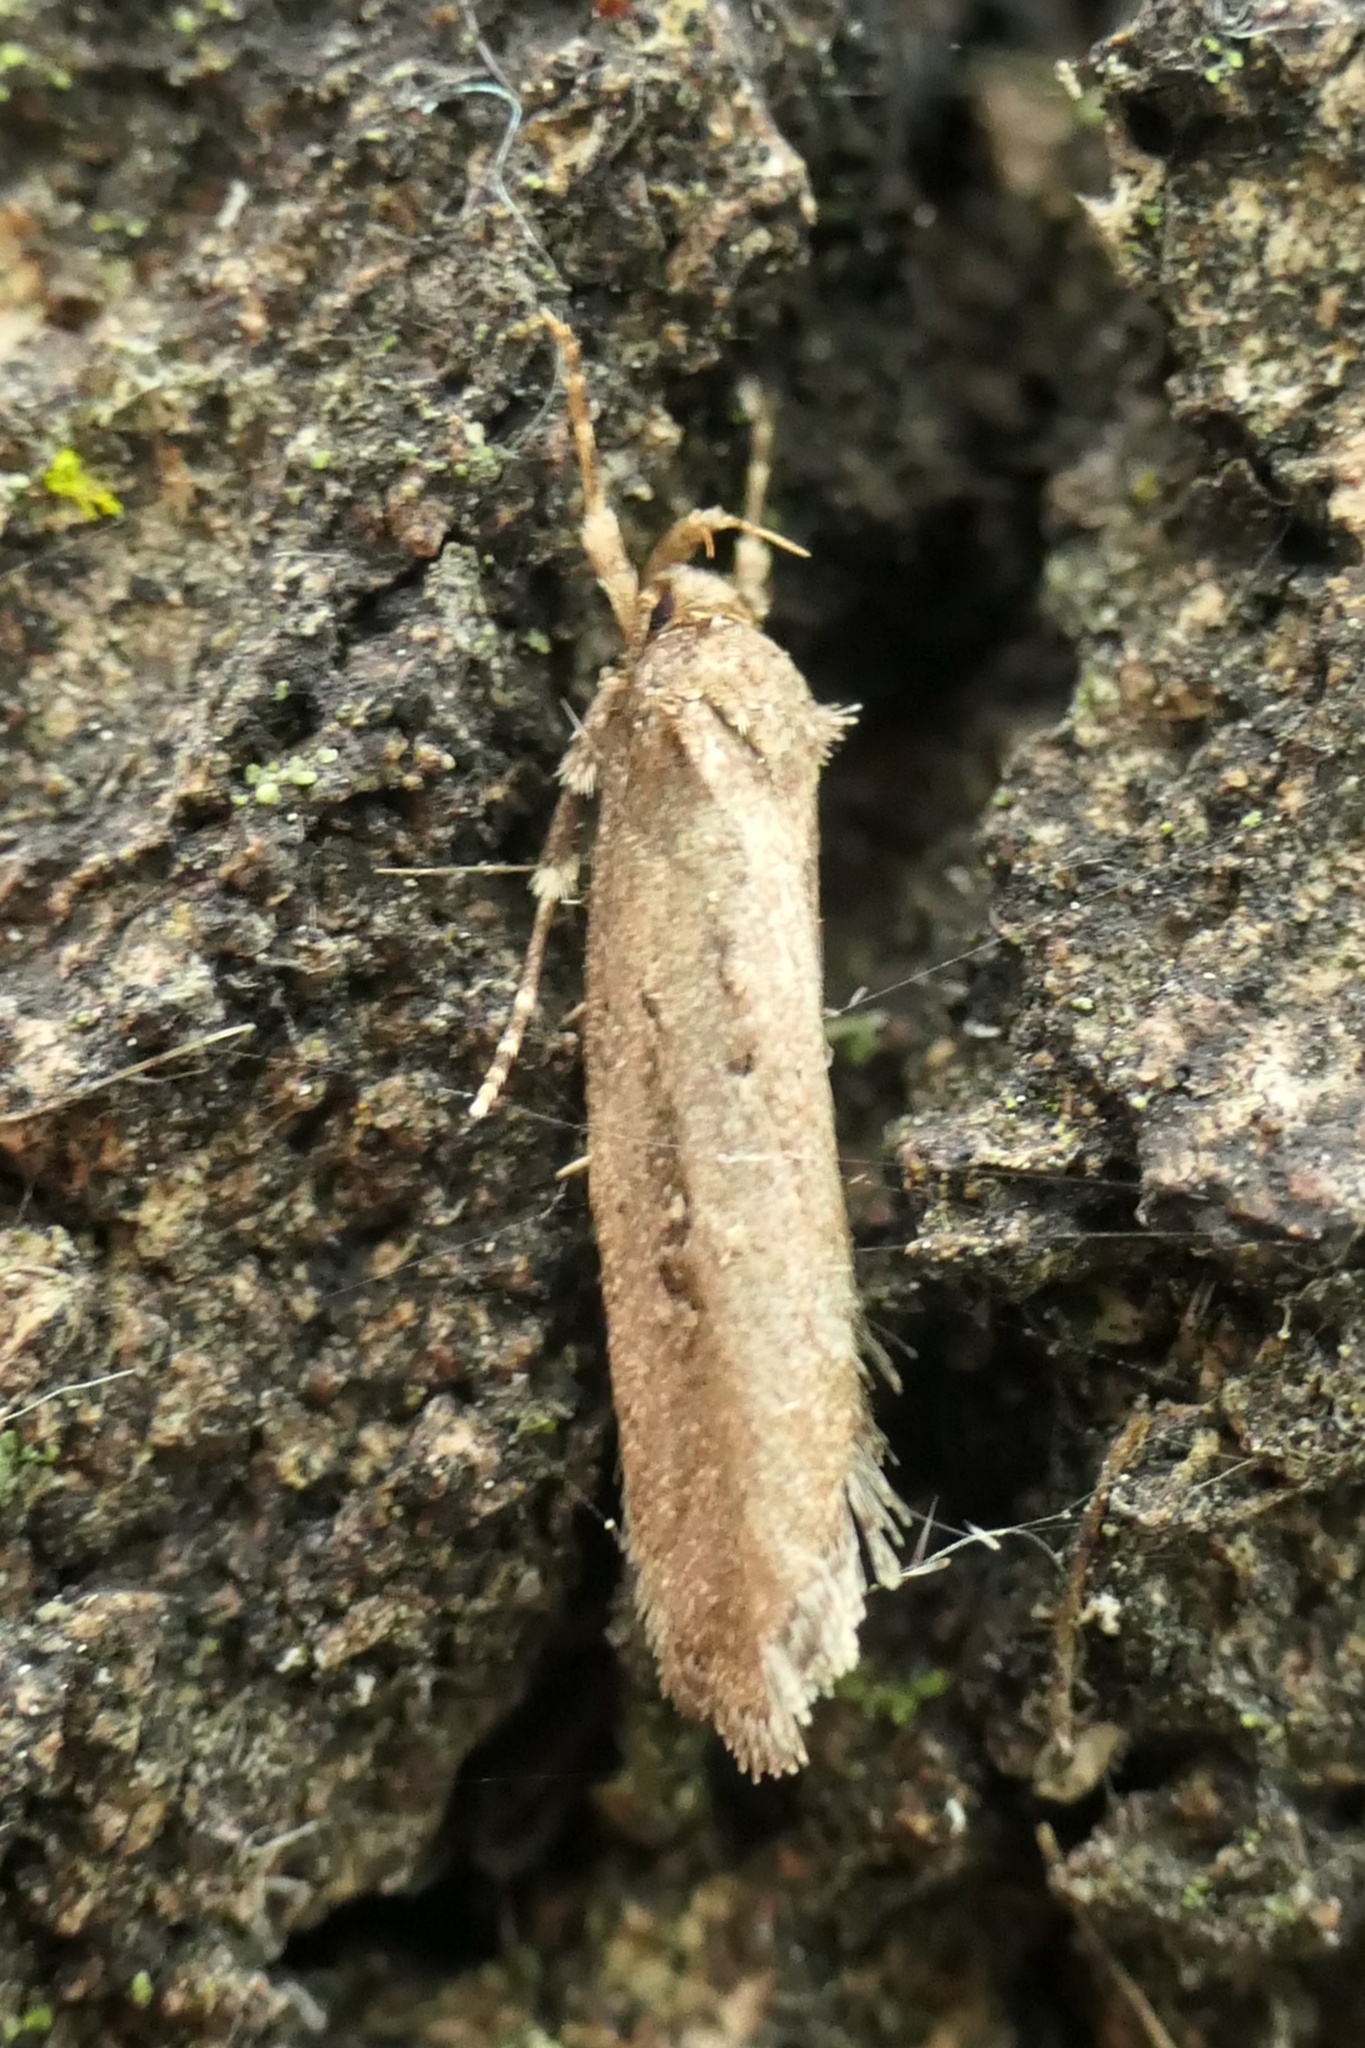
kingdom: Animalia
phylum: Arthropoda
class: Insecta
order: Lepidoptera
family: Oecophoridae
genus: Atomotricha
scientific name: Atomotricha chloronota
